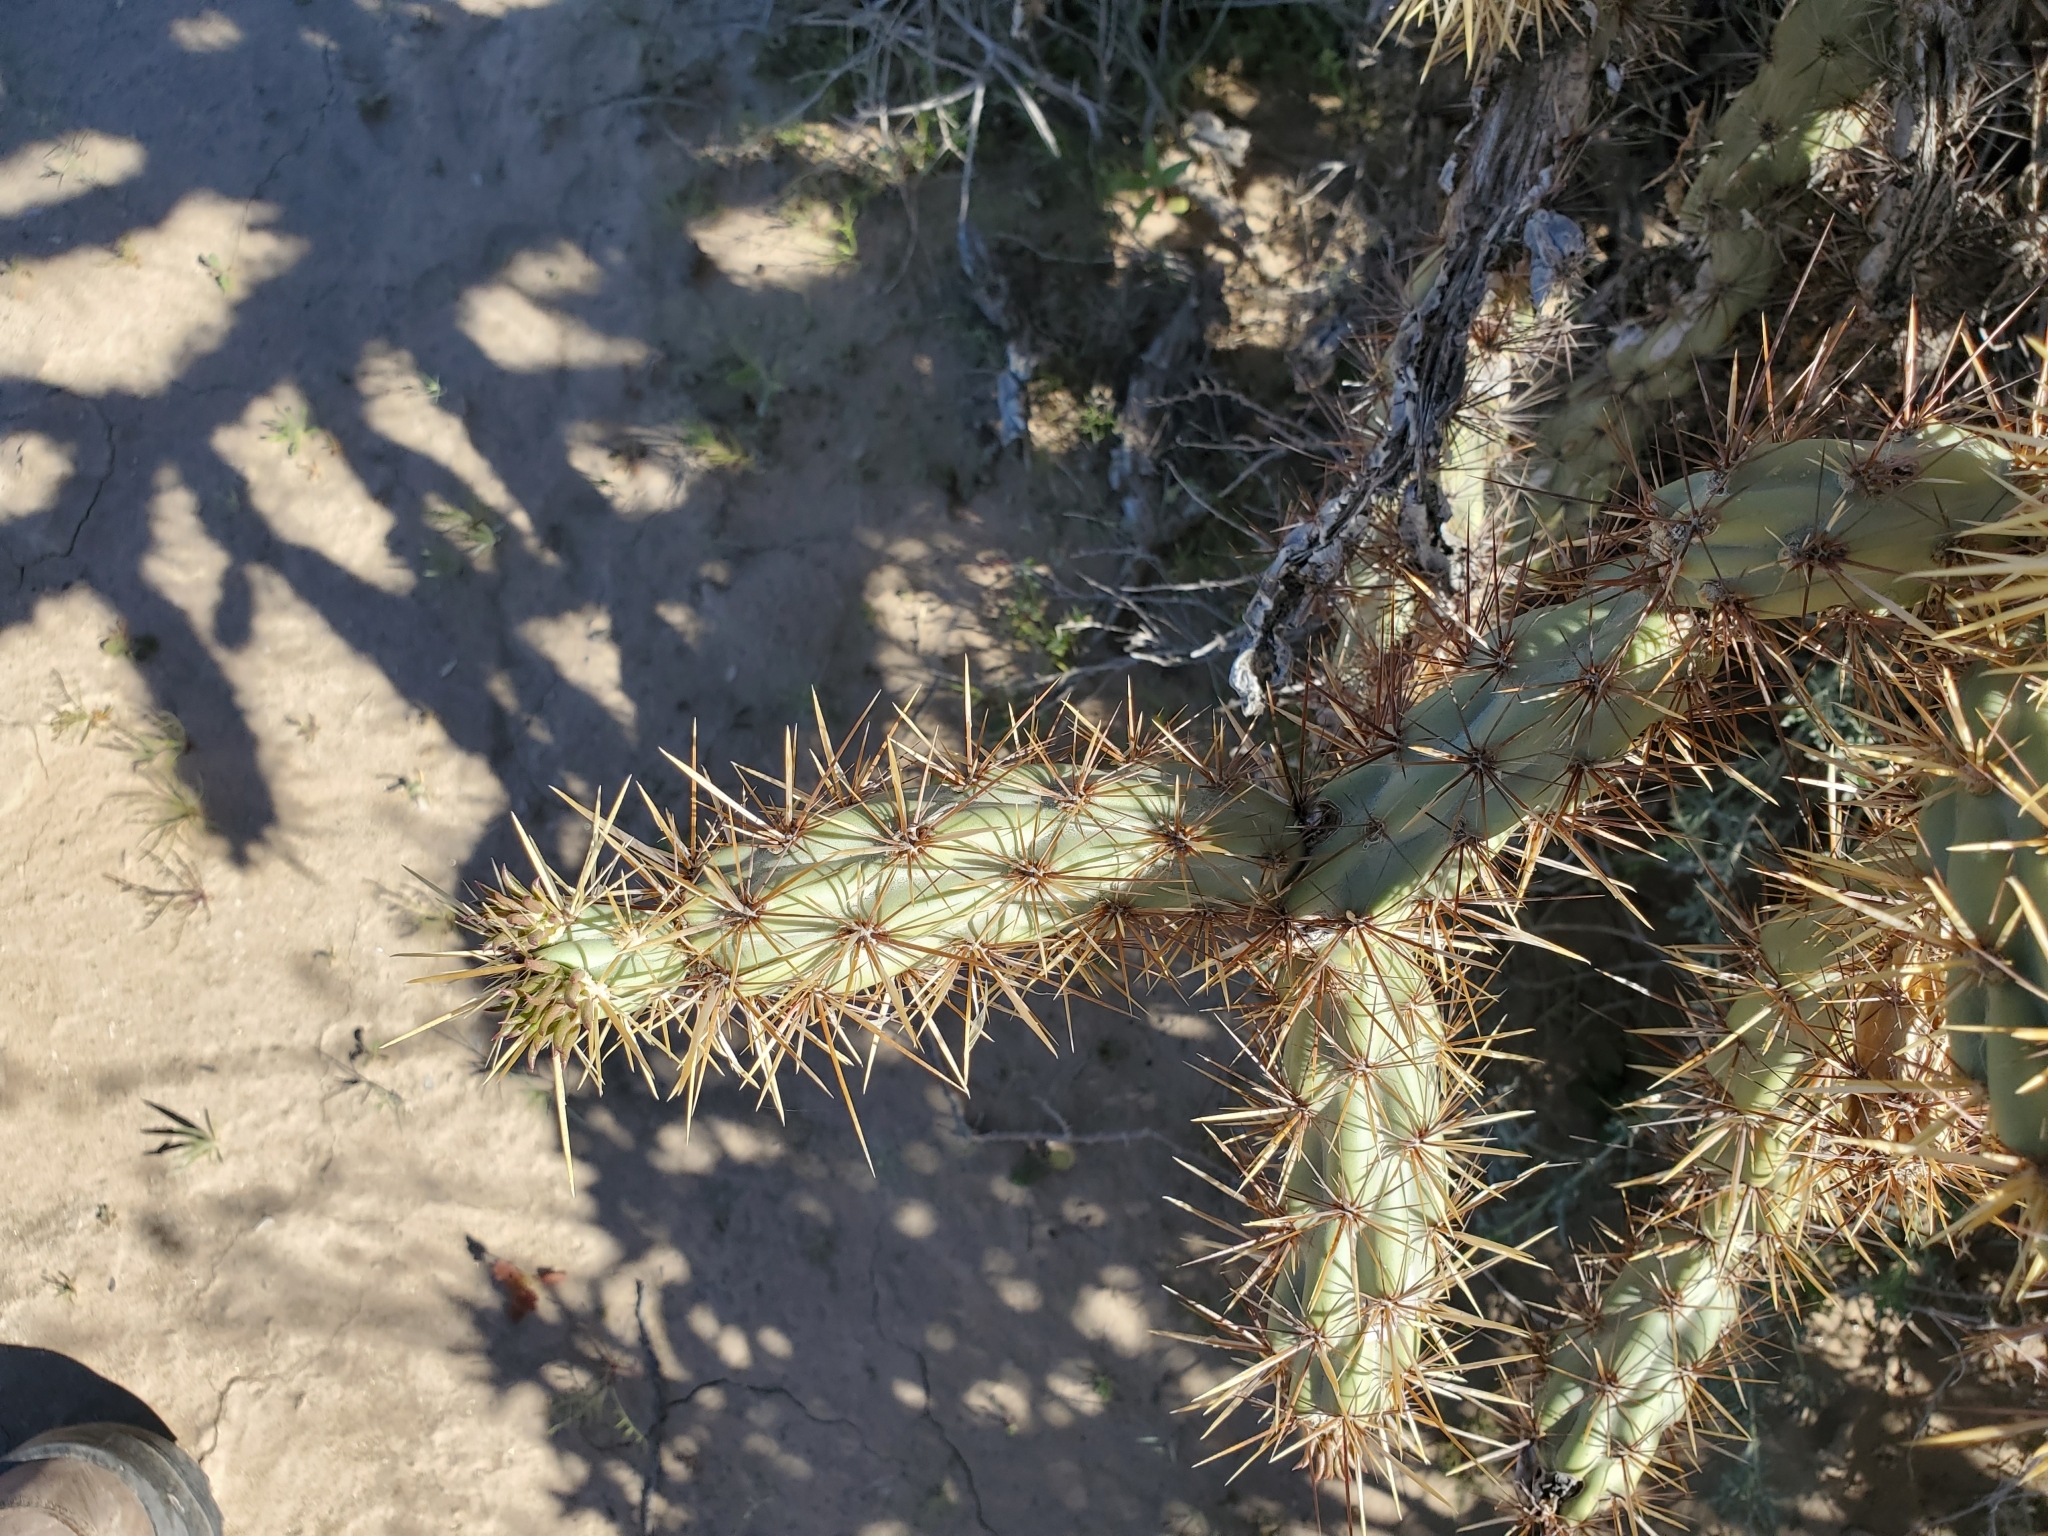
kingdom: Plantae
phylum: Tracheophyta
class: Magnoliopsida
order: Caryophyllales
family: Cactaceae
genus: Cylindropuntia
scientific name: Cylindropuntia acanthocarpa
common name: Buckhorn cholla
